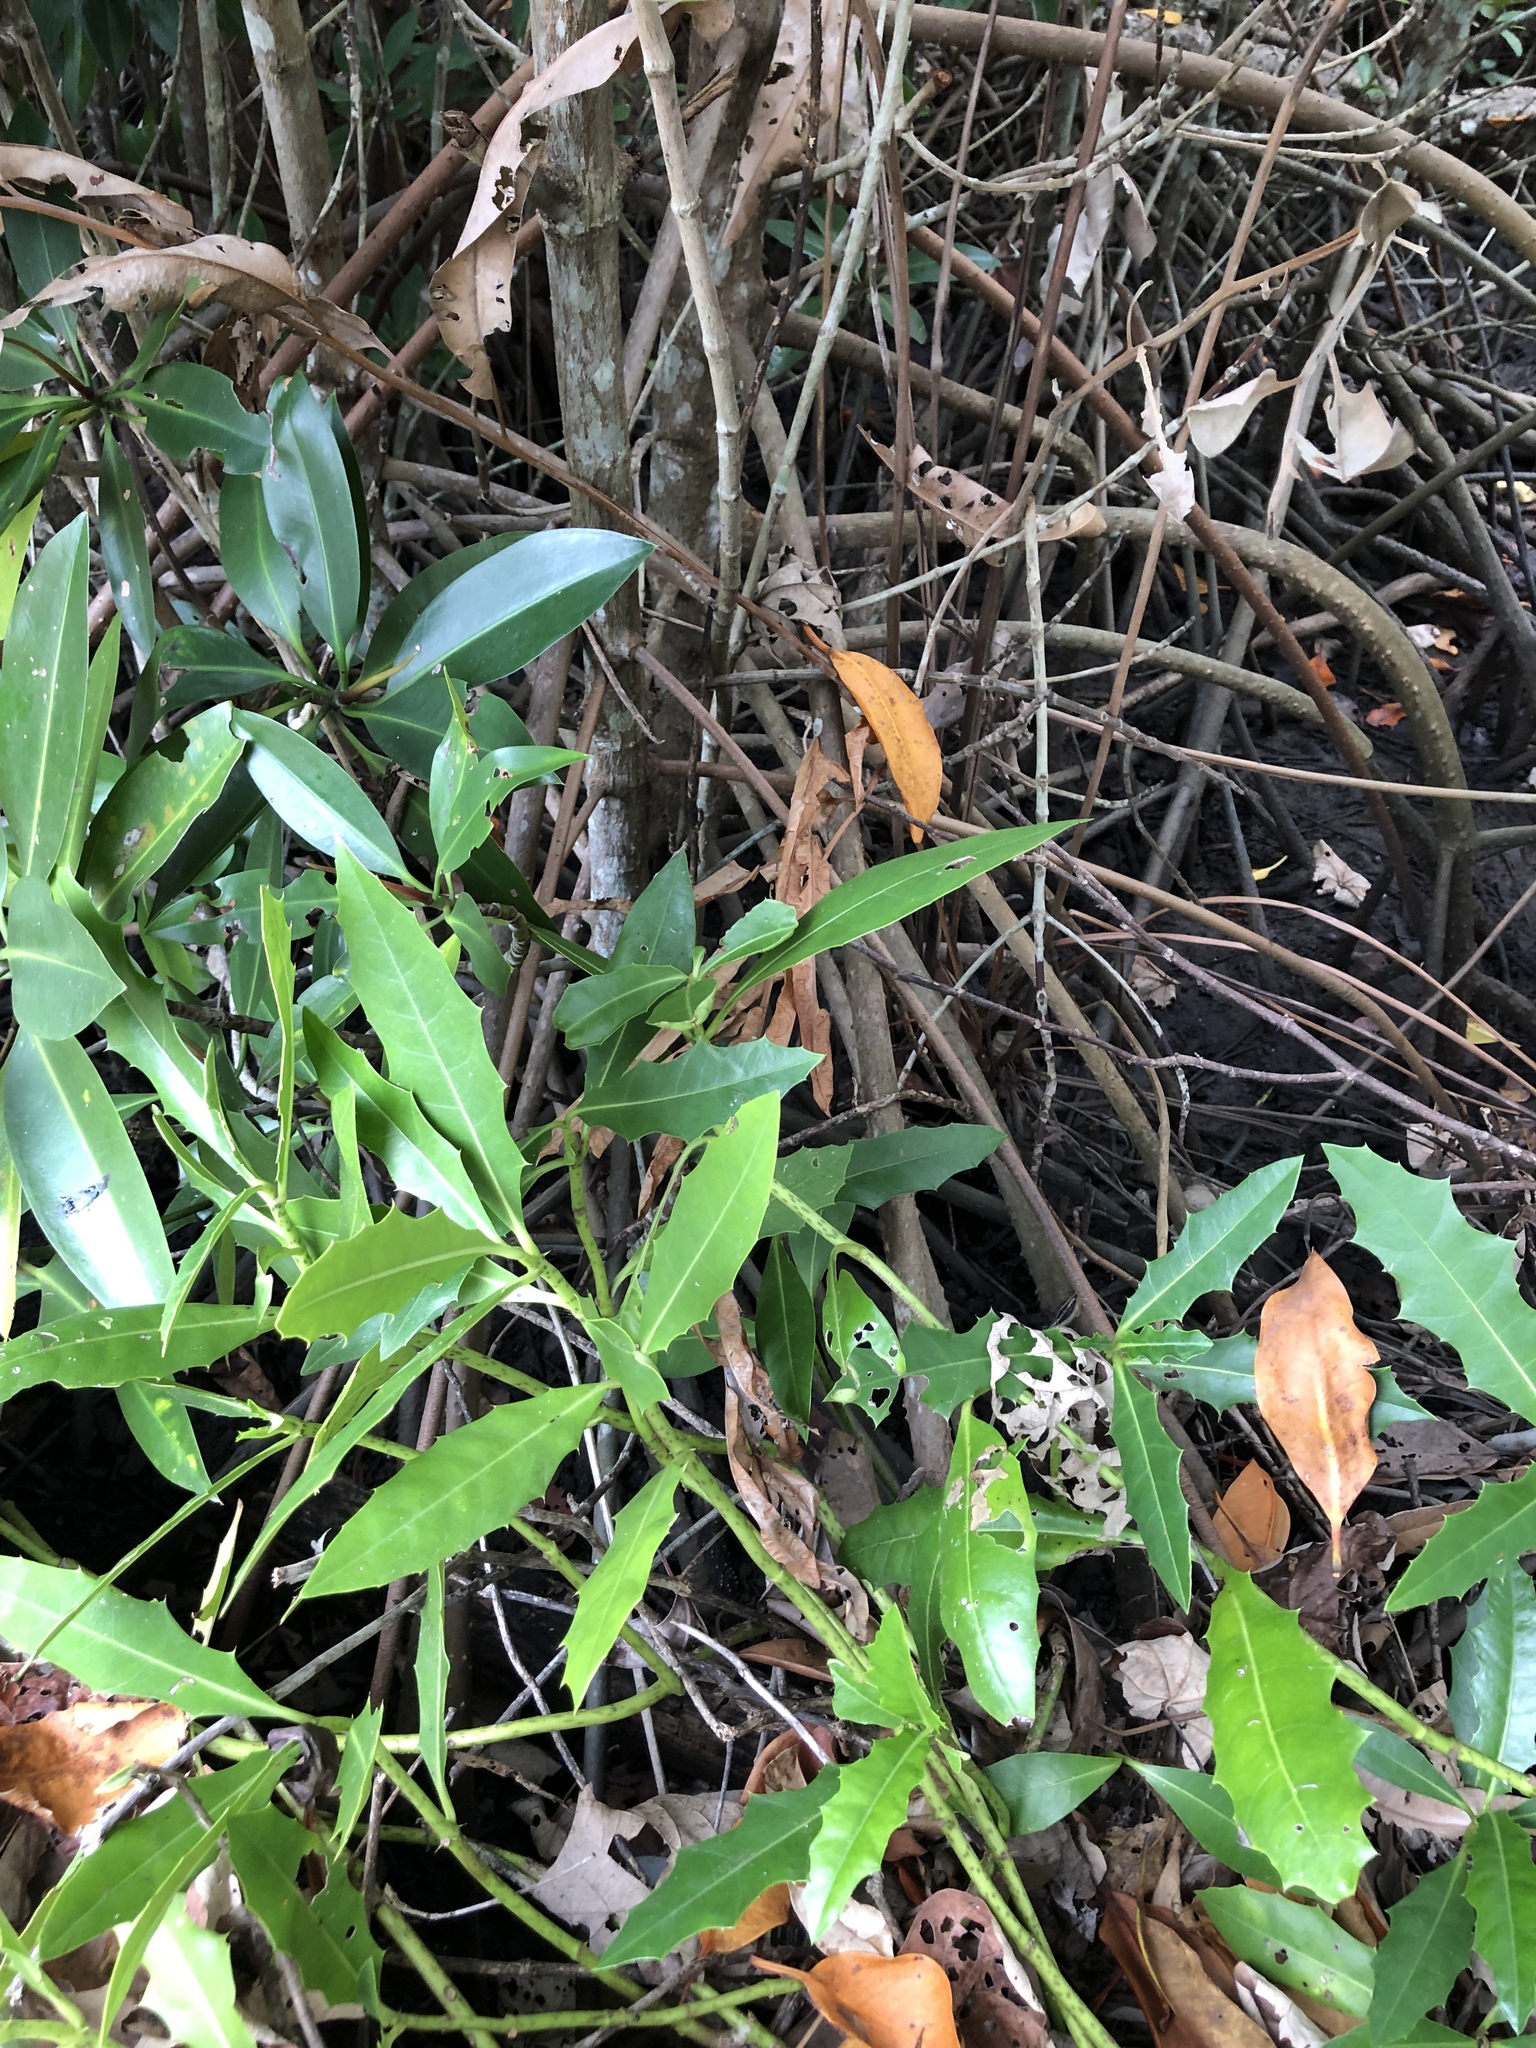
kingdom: Plantae
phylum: Tracheophyta
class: Magnoliopsida
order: Lamiales
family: Acanthaceae
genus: Acanthus
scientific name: Acanthus ilicifolius
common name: Holy mangrove
